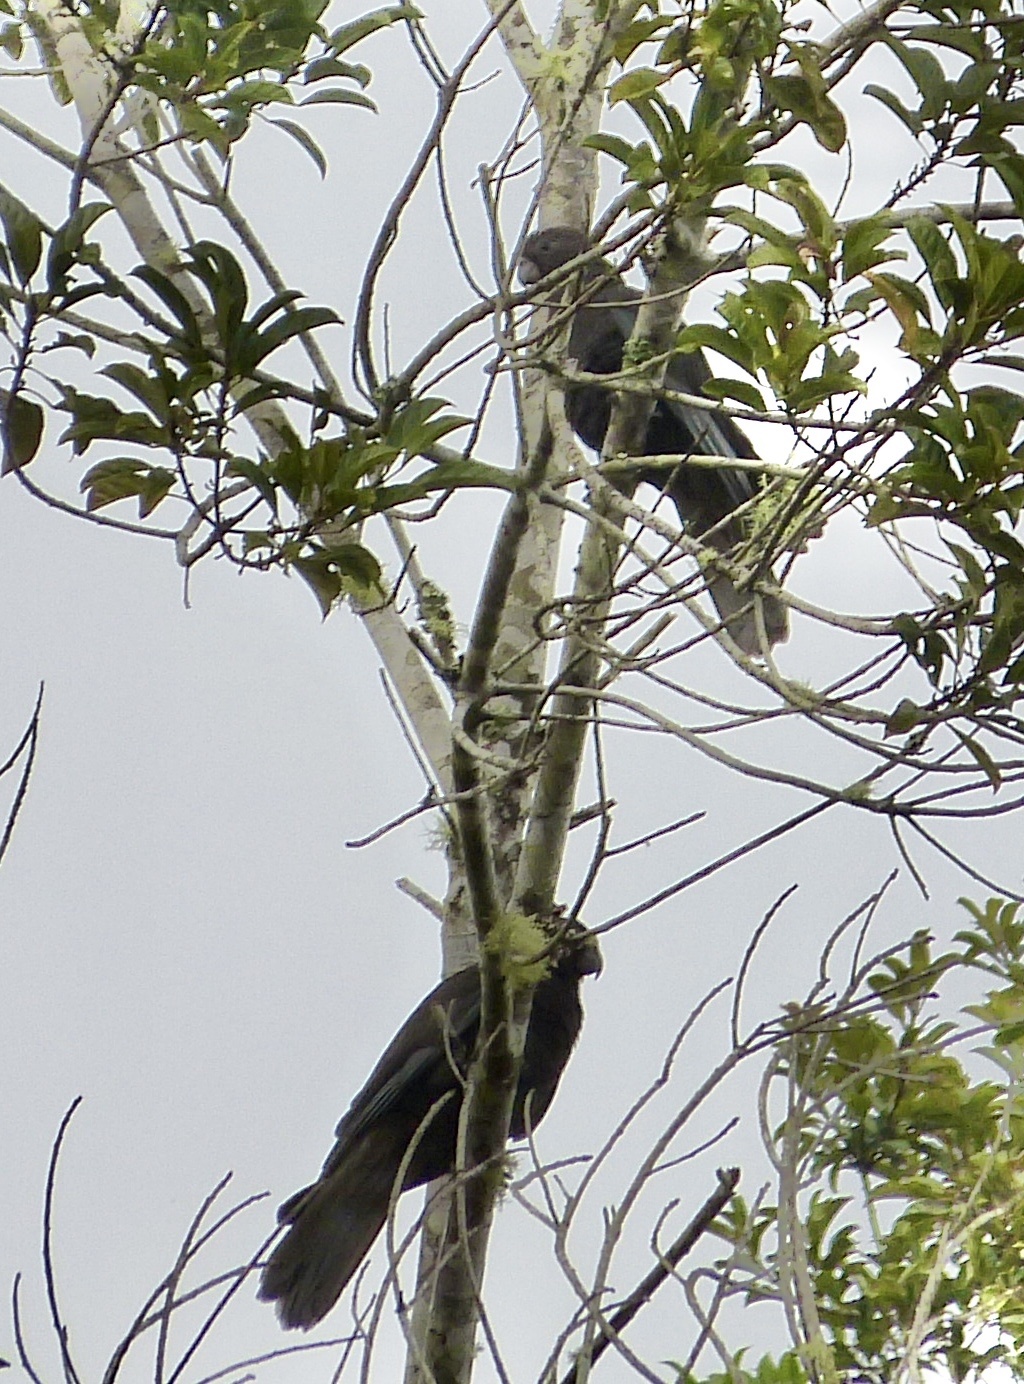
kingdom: Animalia
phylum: Chordata
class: Aves
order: Psittaciformes
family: Psittacidae
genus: Coracopsis
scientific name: Coracopsis nigra
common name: Lesser vasa parrot
